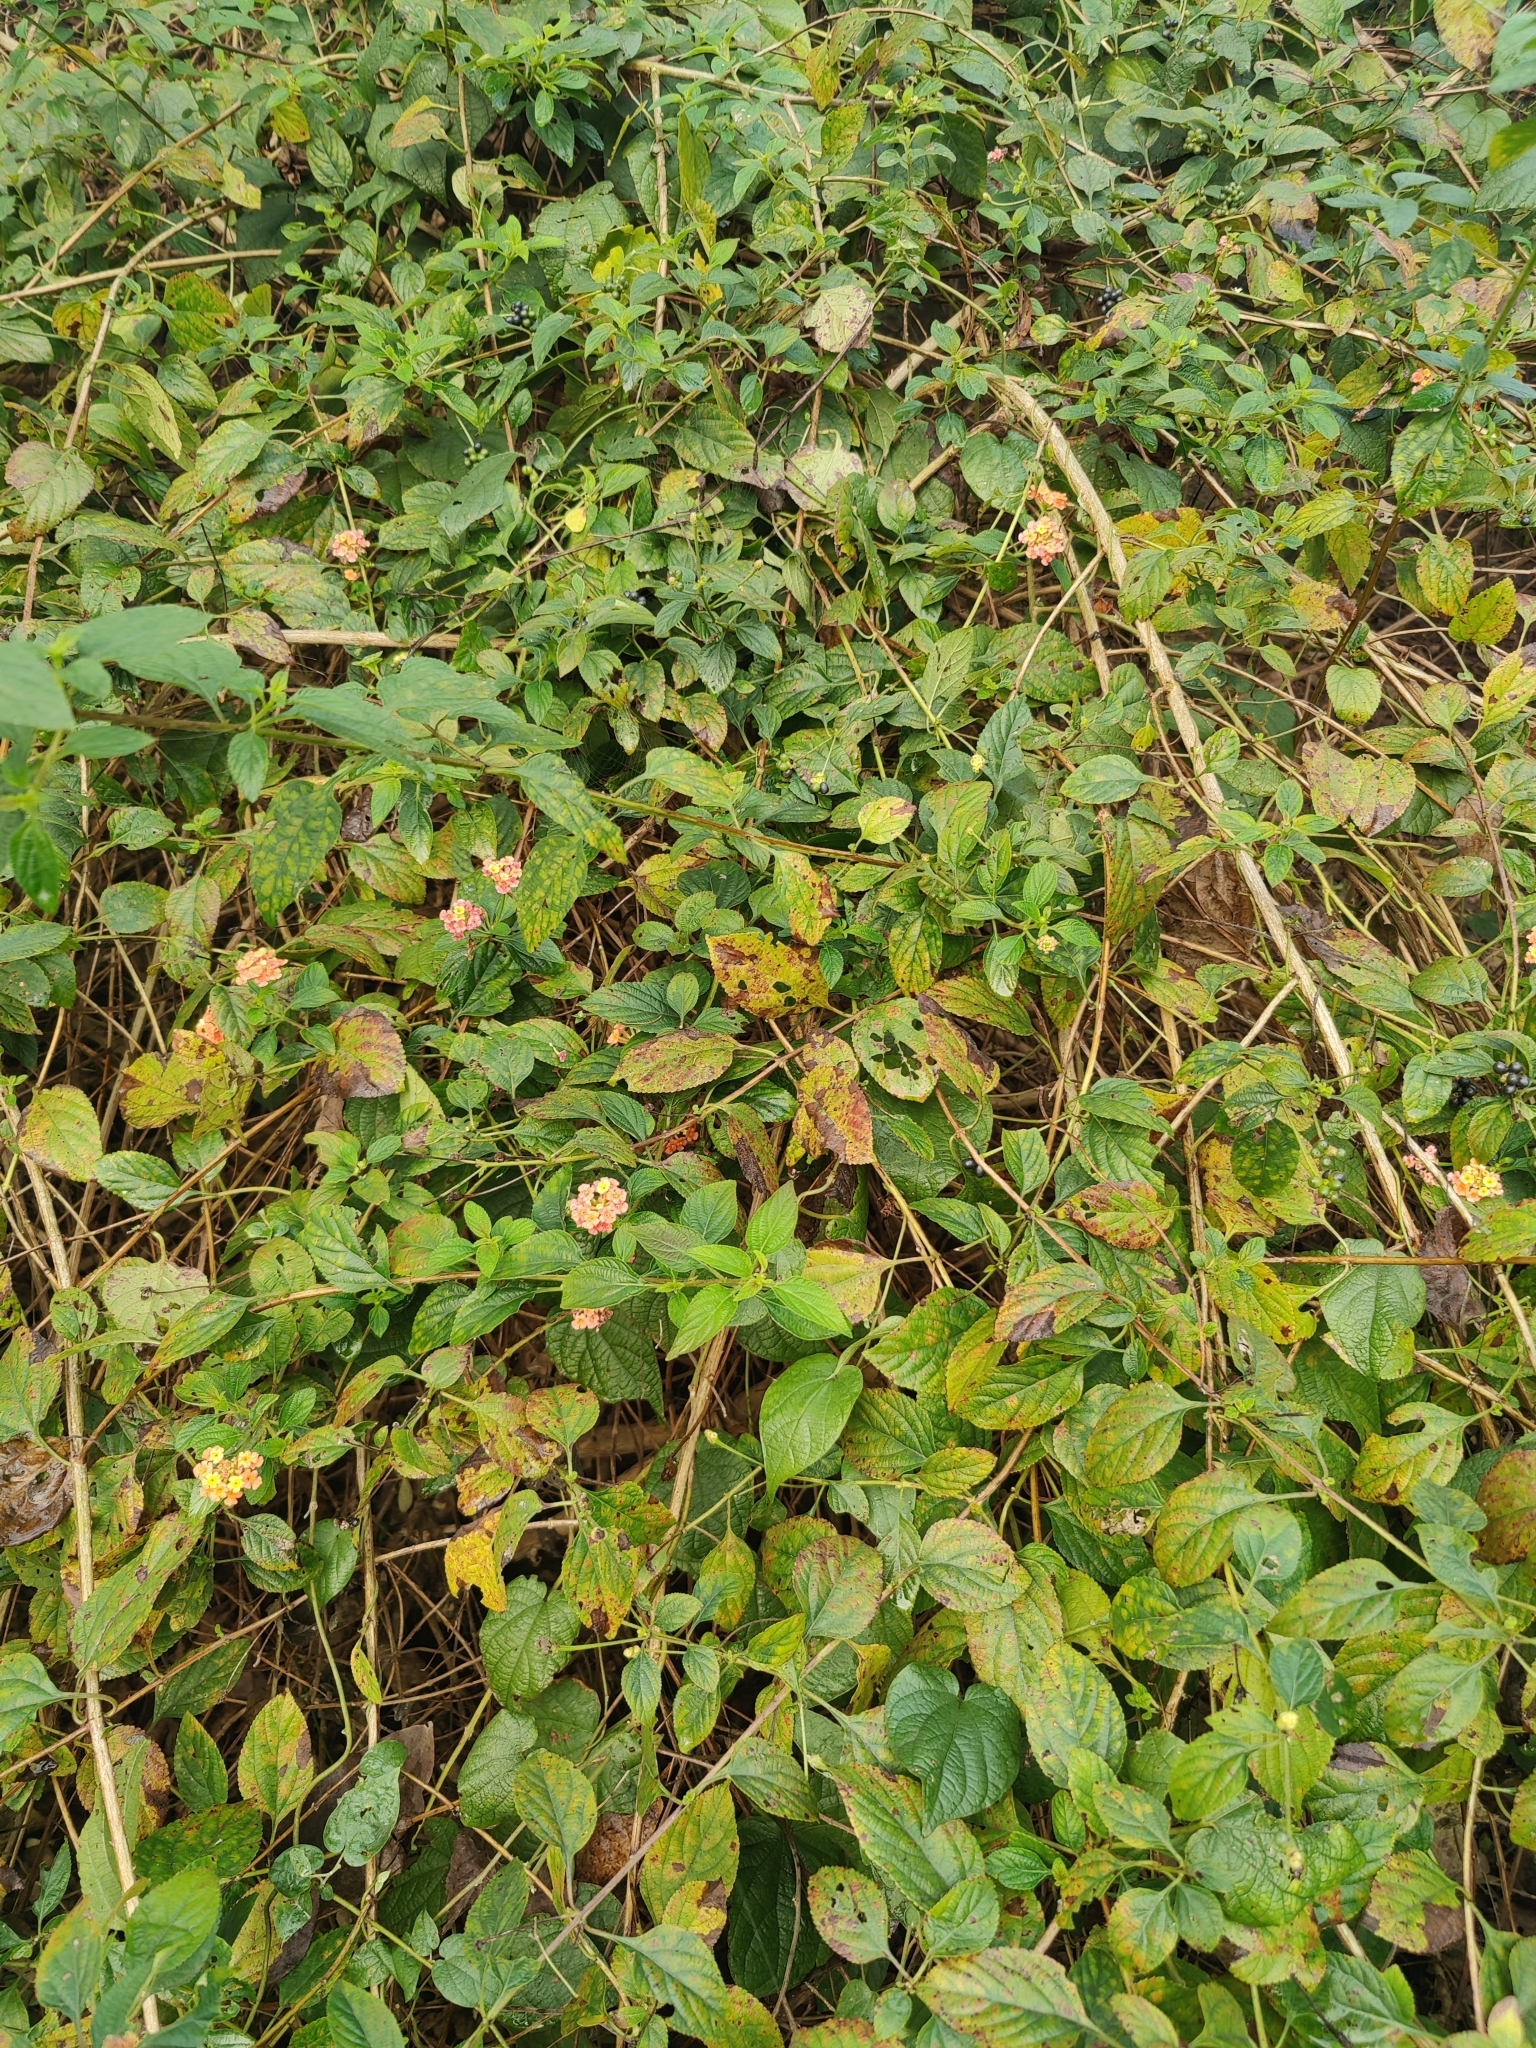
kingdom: Plantae
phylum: Tracheophyta
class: Magnoliopsida
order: Lamiales
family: Verbenaceae
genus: Lantana
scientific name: Lantana camara
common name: Lantana
